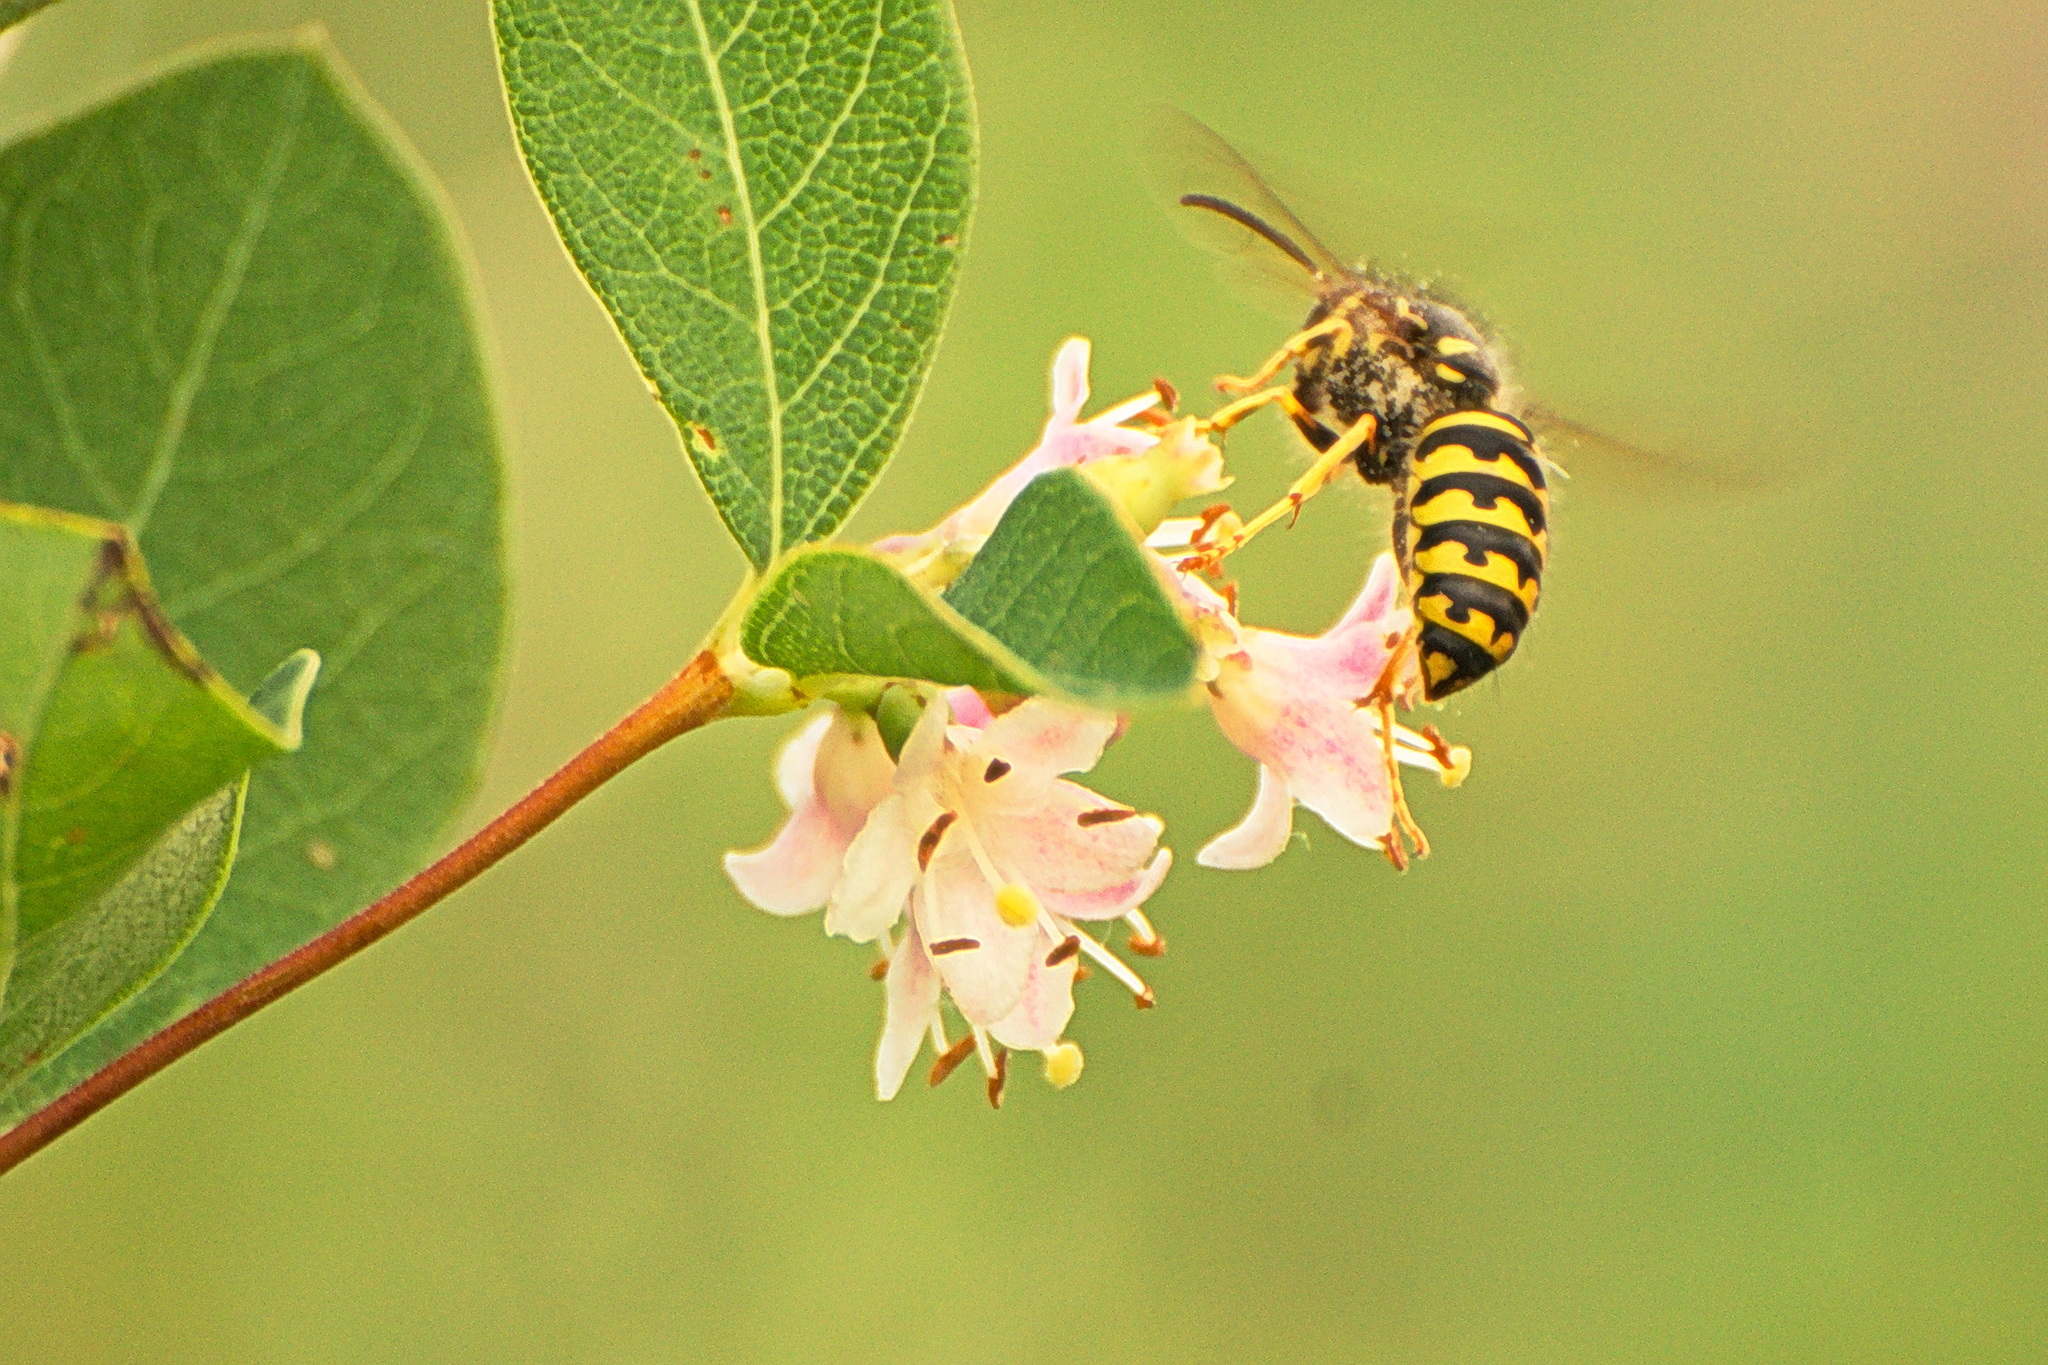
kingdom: Animalia
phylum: Arthropoda
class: Insecta
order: Hymenoptera
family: Vespidae
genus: Dolichovespula
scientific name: Dolichovespula arenaria
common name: Aerial yellowjacket
